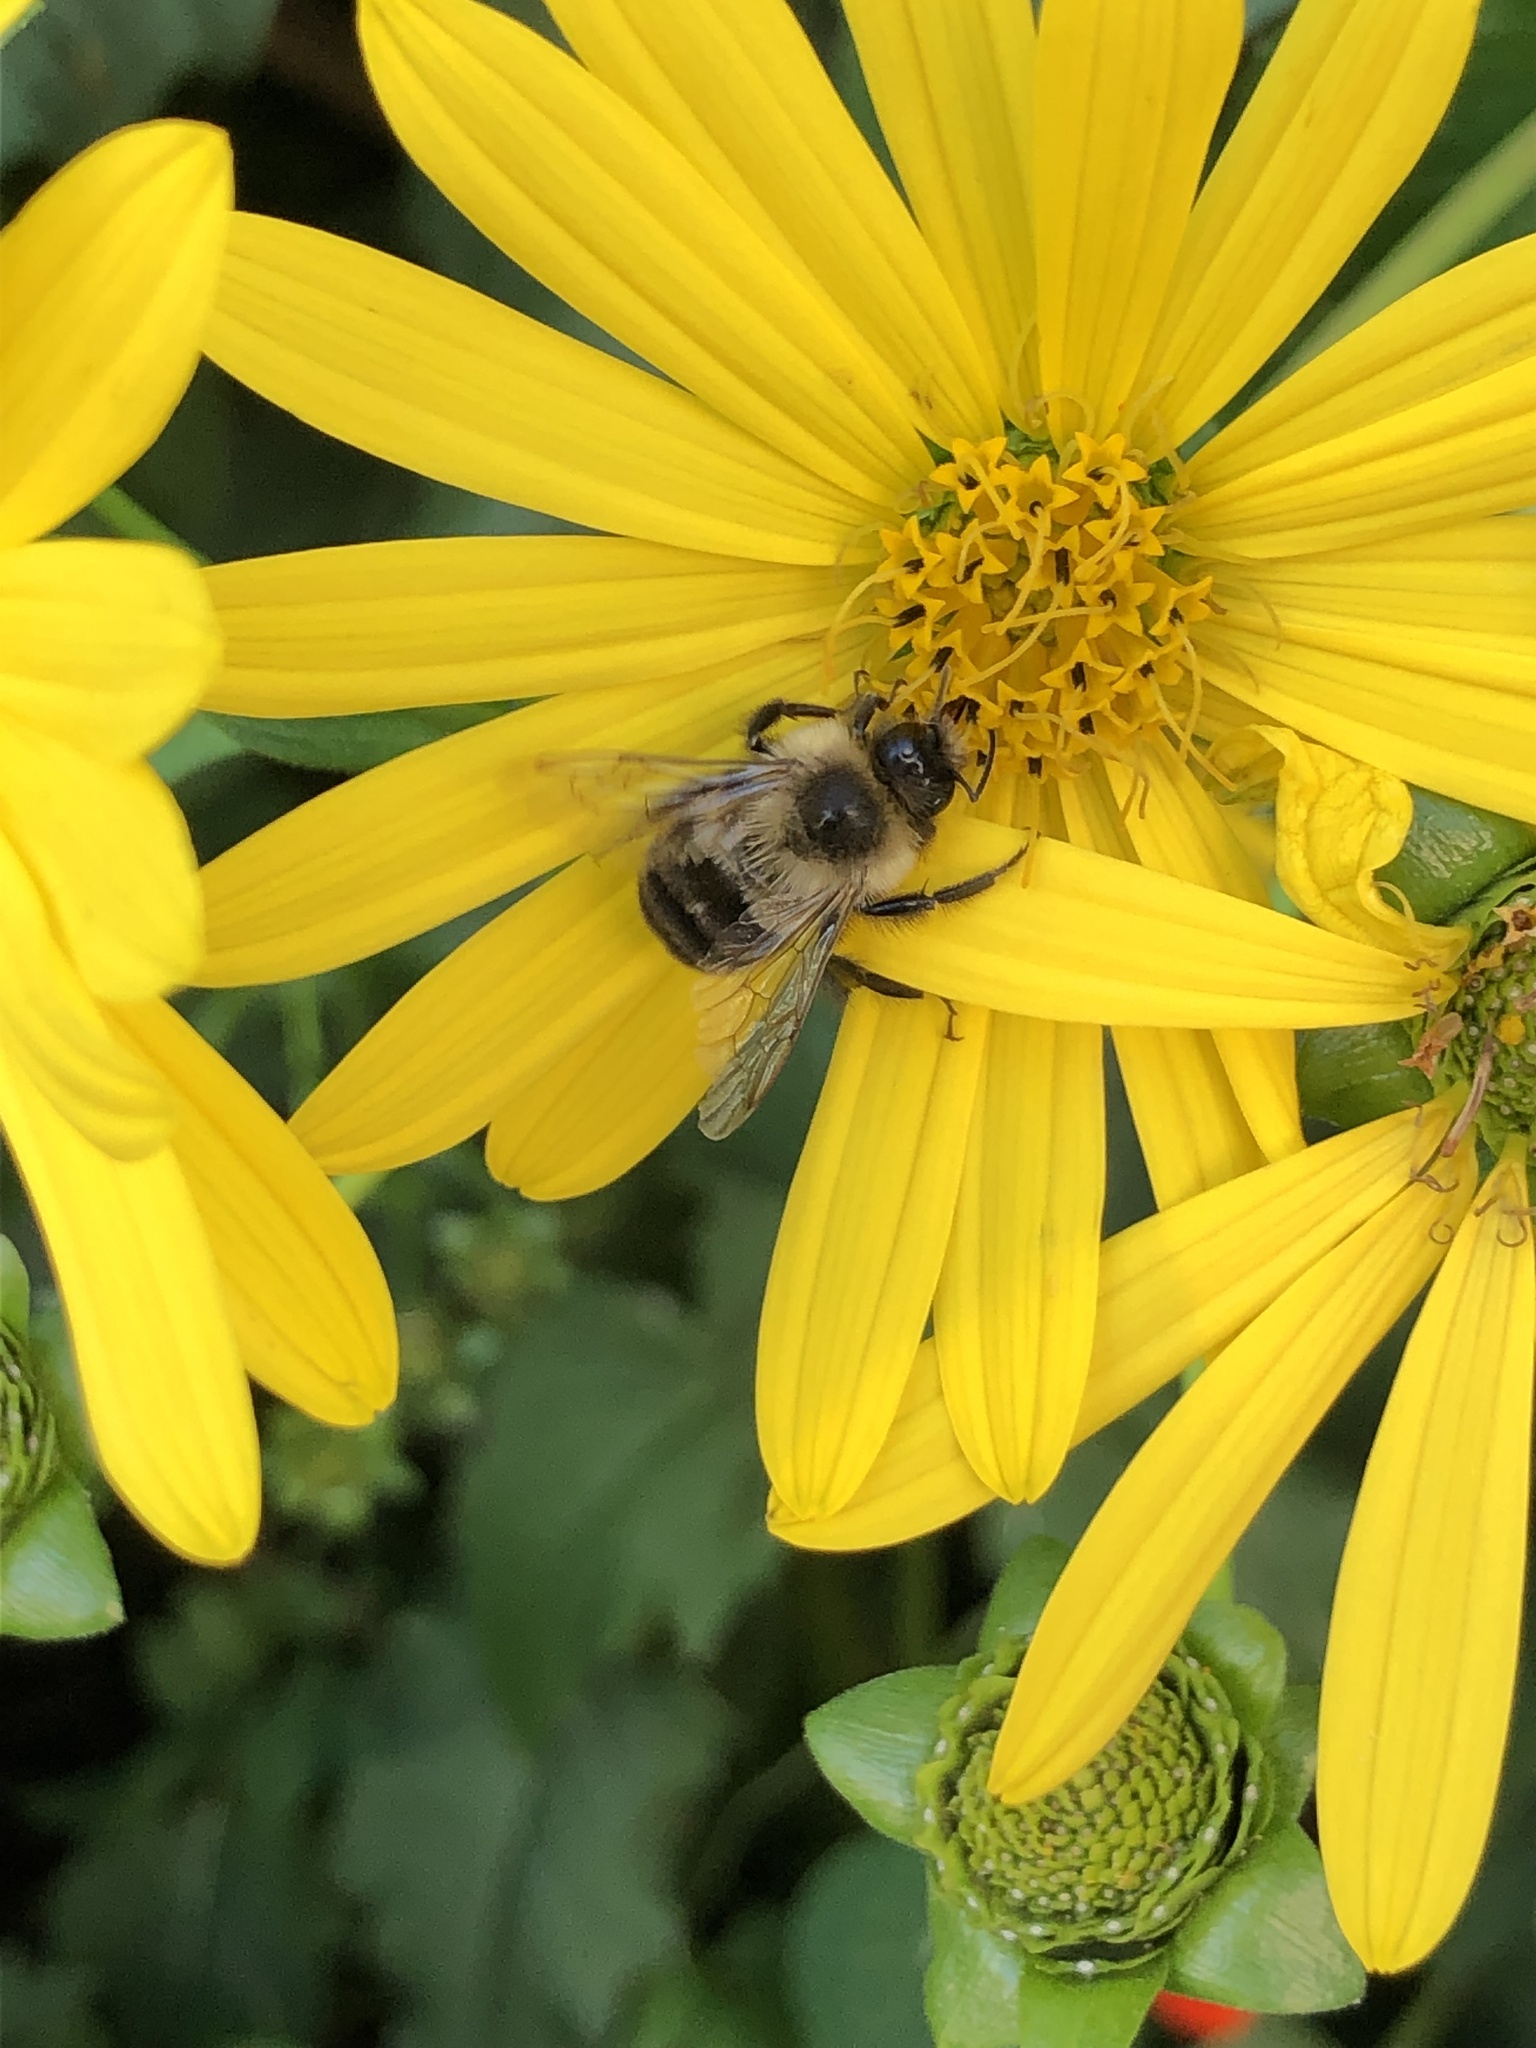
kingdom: Animalia
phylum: Arthropoda
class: Insecta
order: Hymenoptera
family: Apidae
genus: Bombus
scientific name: Bombus impatiens
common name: Common eastern bumble bee
